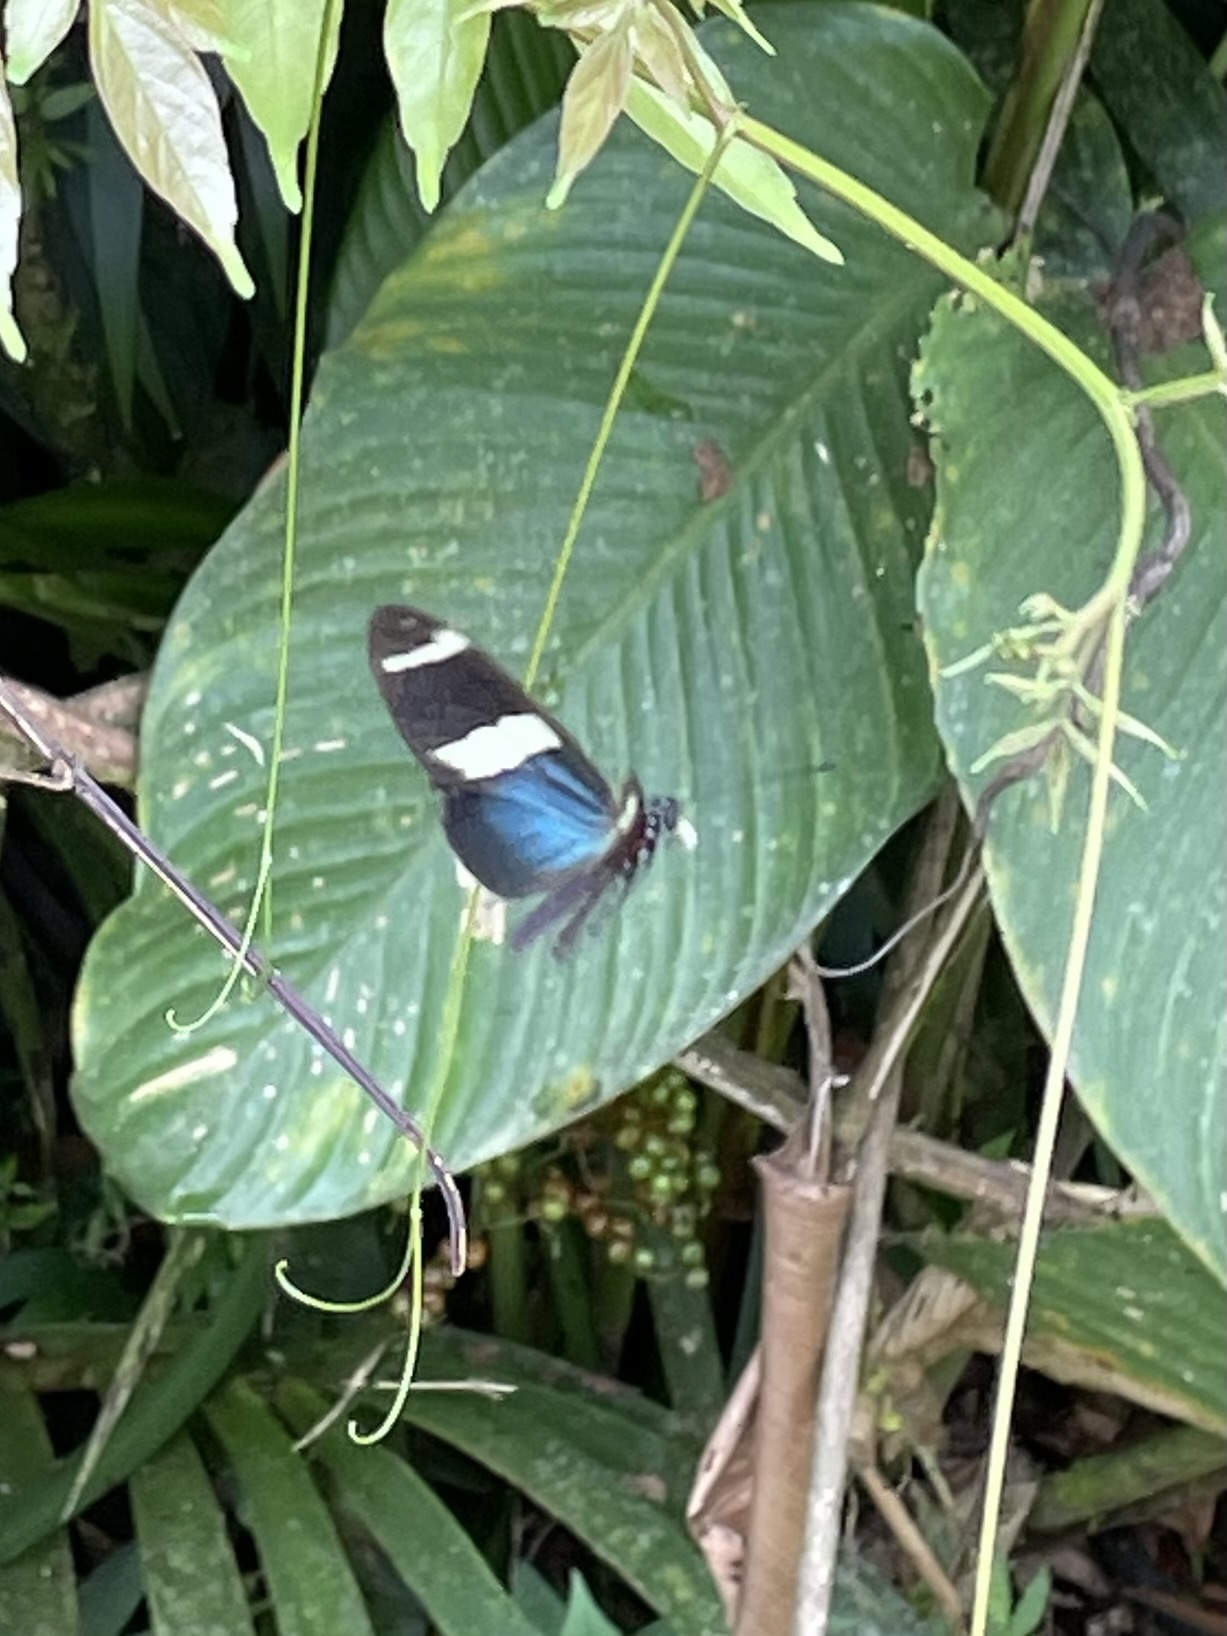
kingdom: Animalia
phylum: Arthropoda
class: Insecta
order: Lepidoptera
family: Nymphalidae
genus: Heliconius
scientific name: Heliconius sara
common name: Sara longwing
